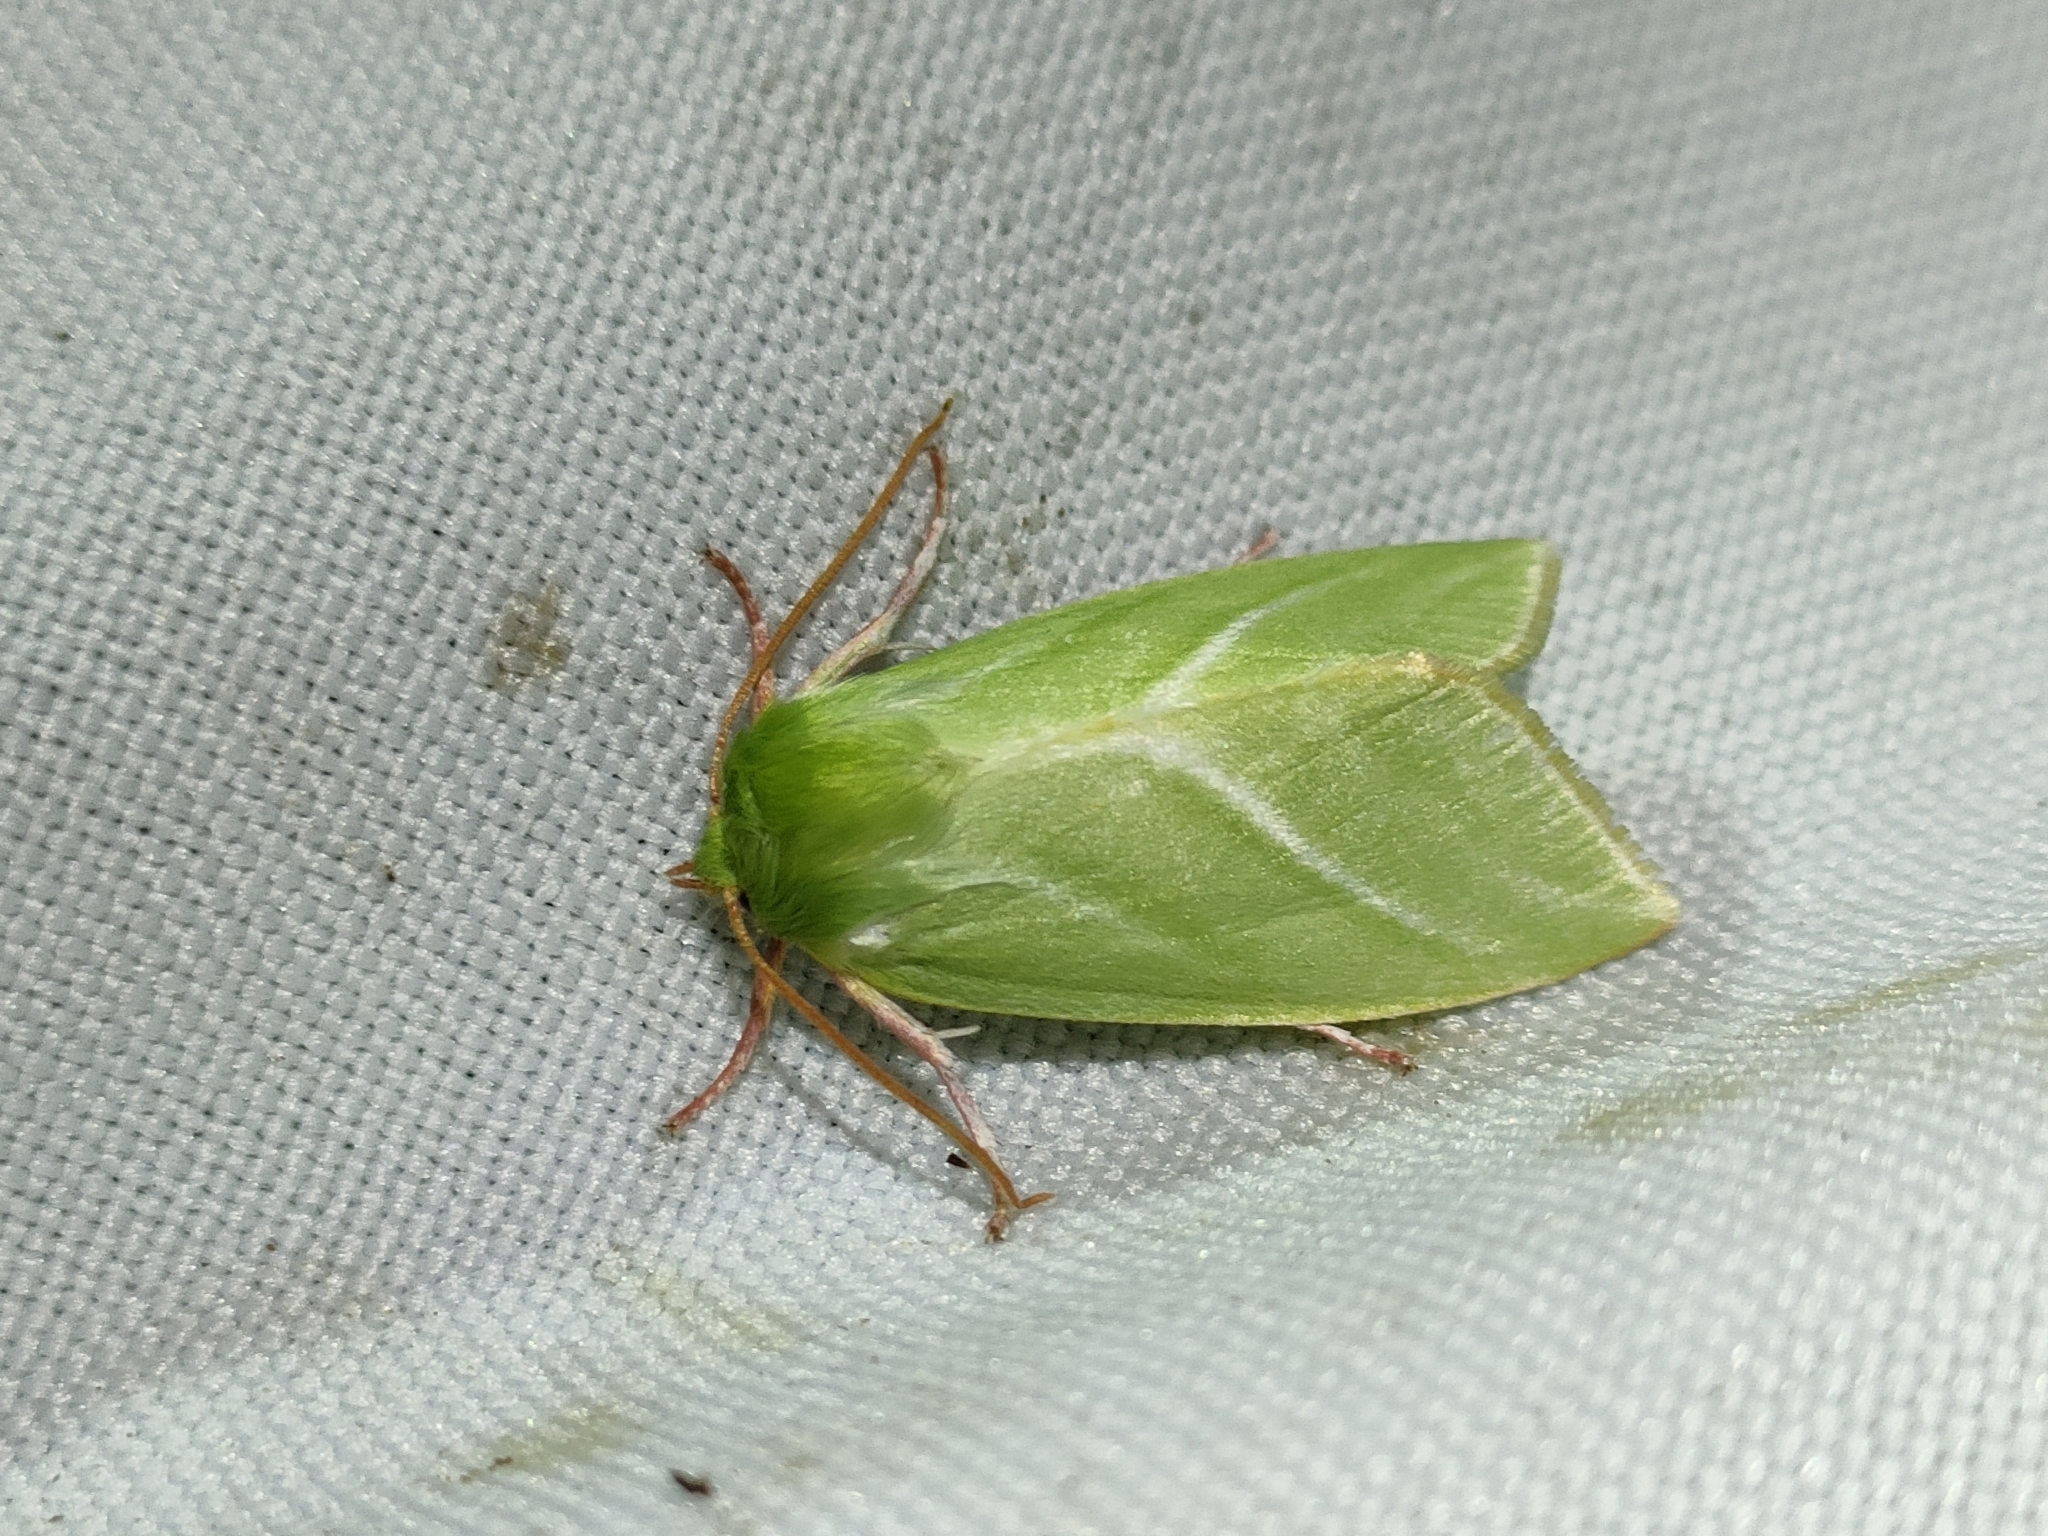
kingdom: Animalia
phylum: Arthropoda
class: Insecta
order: Lepidoptera
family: Nolidae
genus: Pseudoips
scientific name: Pseudoips prasinana
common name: Green silver-lines
